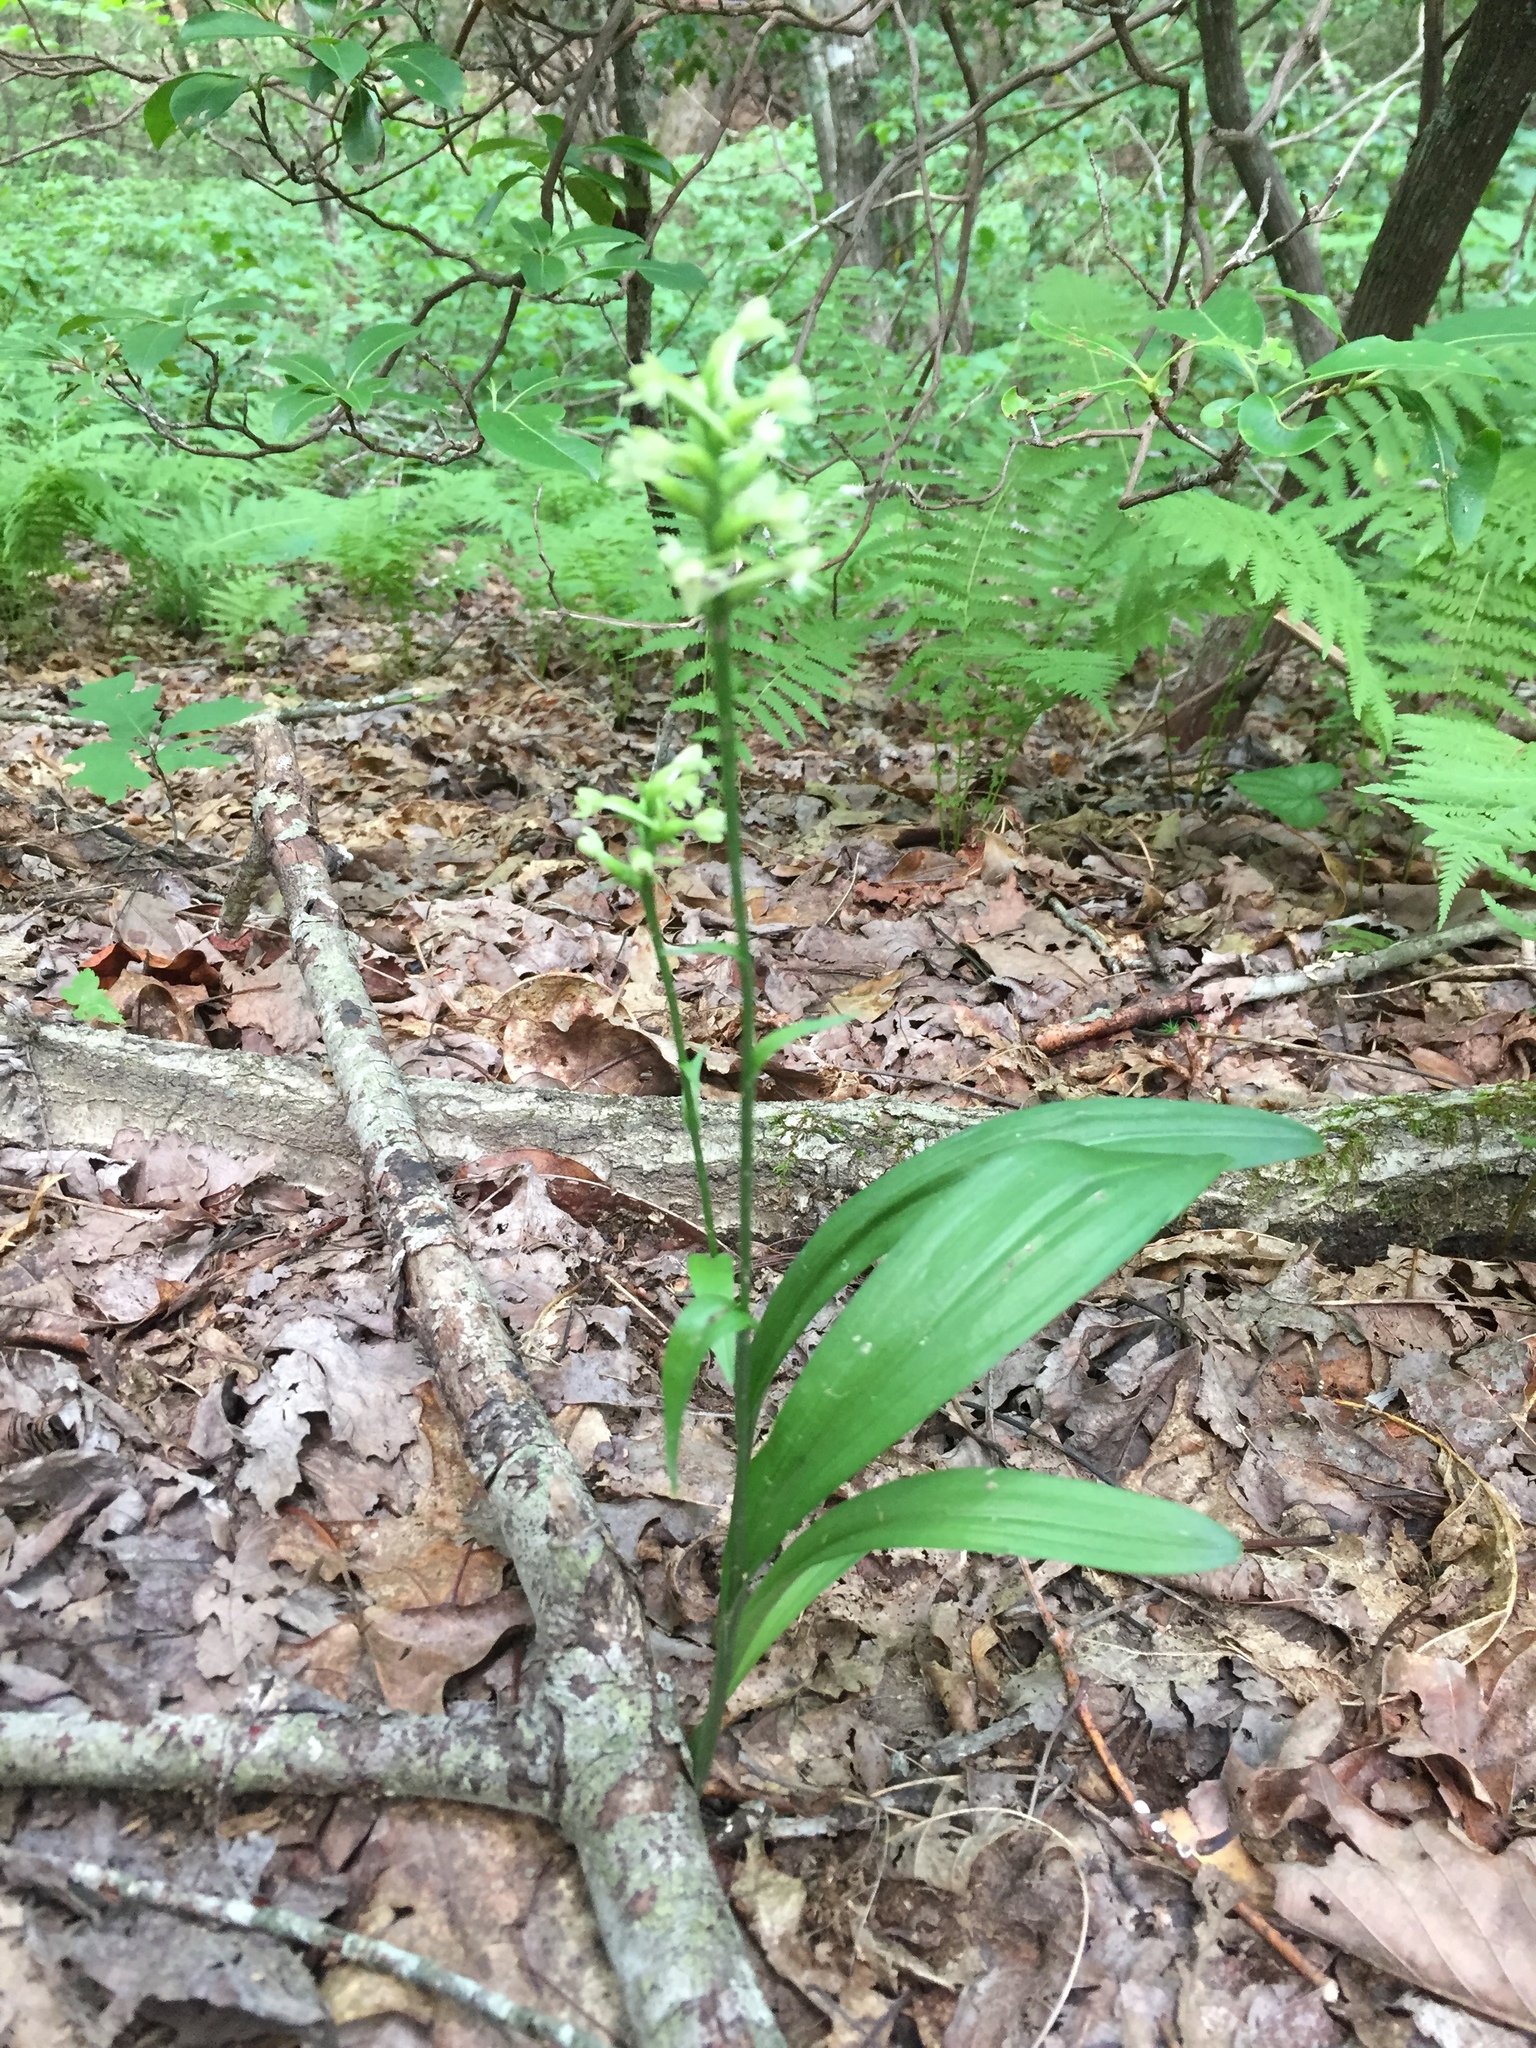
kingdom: Plantae
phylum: Tracheophyta
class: Liliopsida
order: Asparagales
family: Orchidaceae
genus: Platanthera
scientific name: Platanthera clavellata
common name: Club-spur orchid
